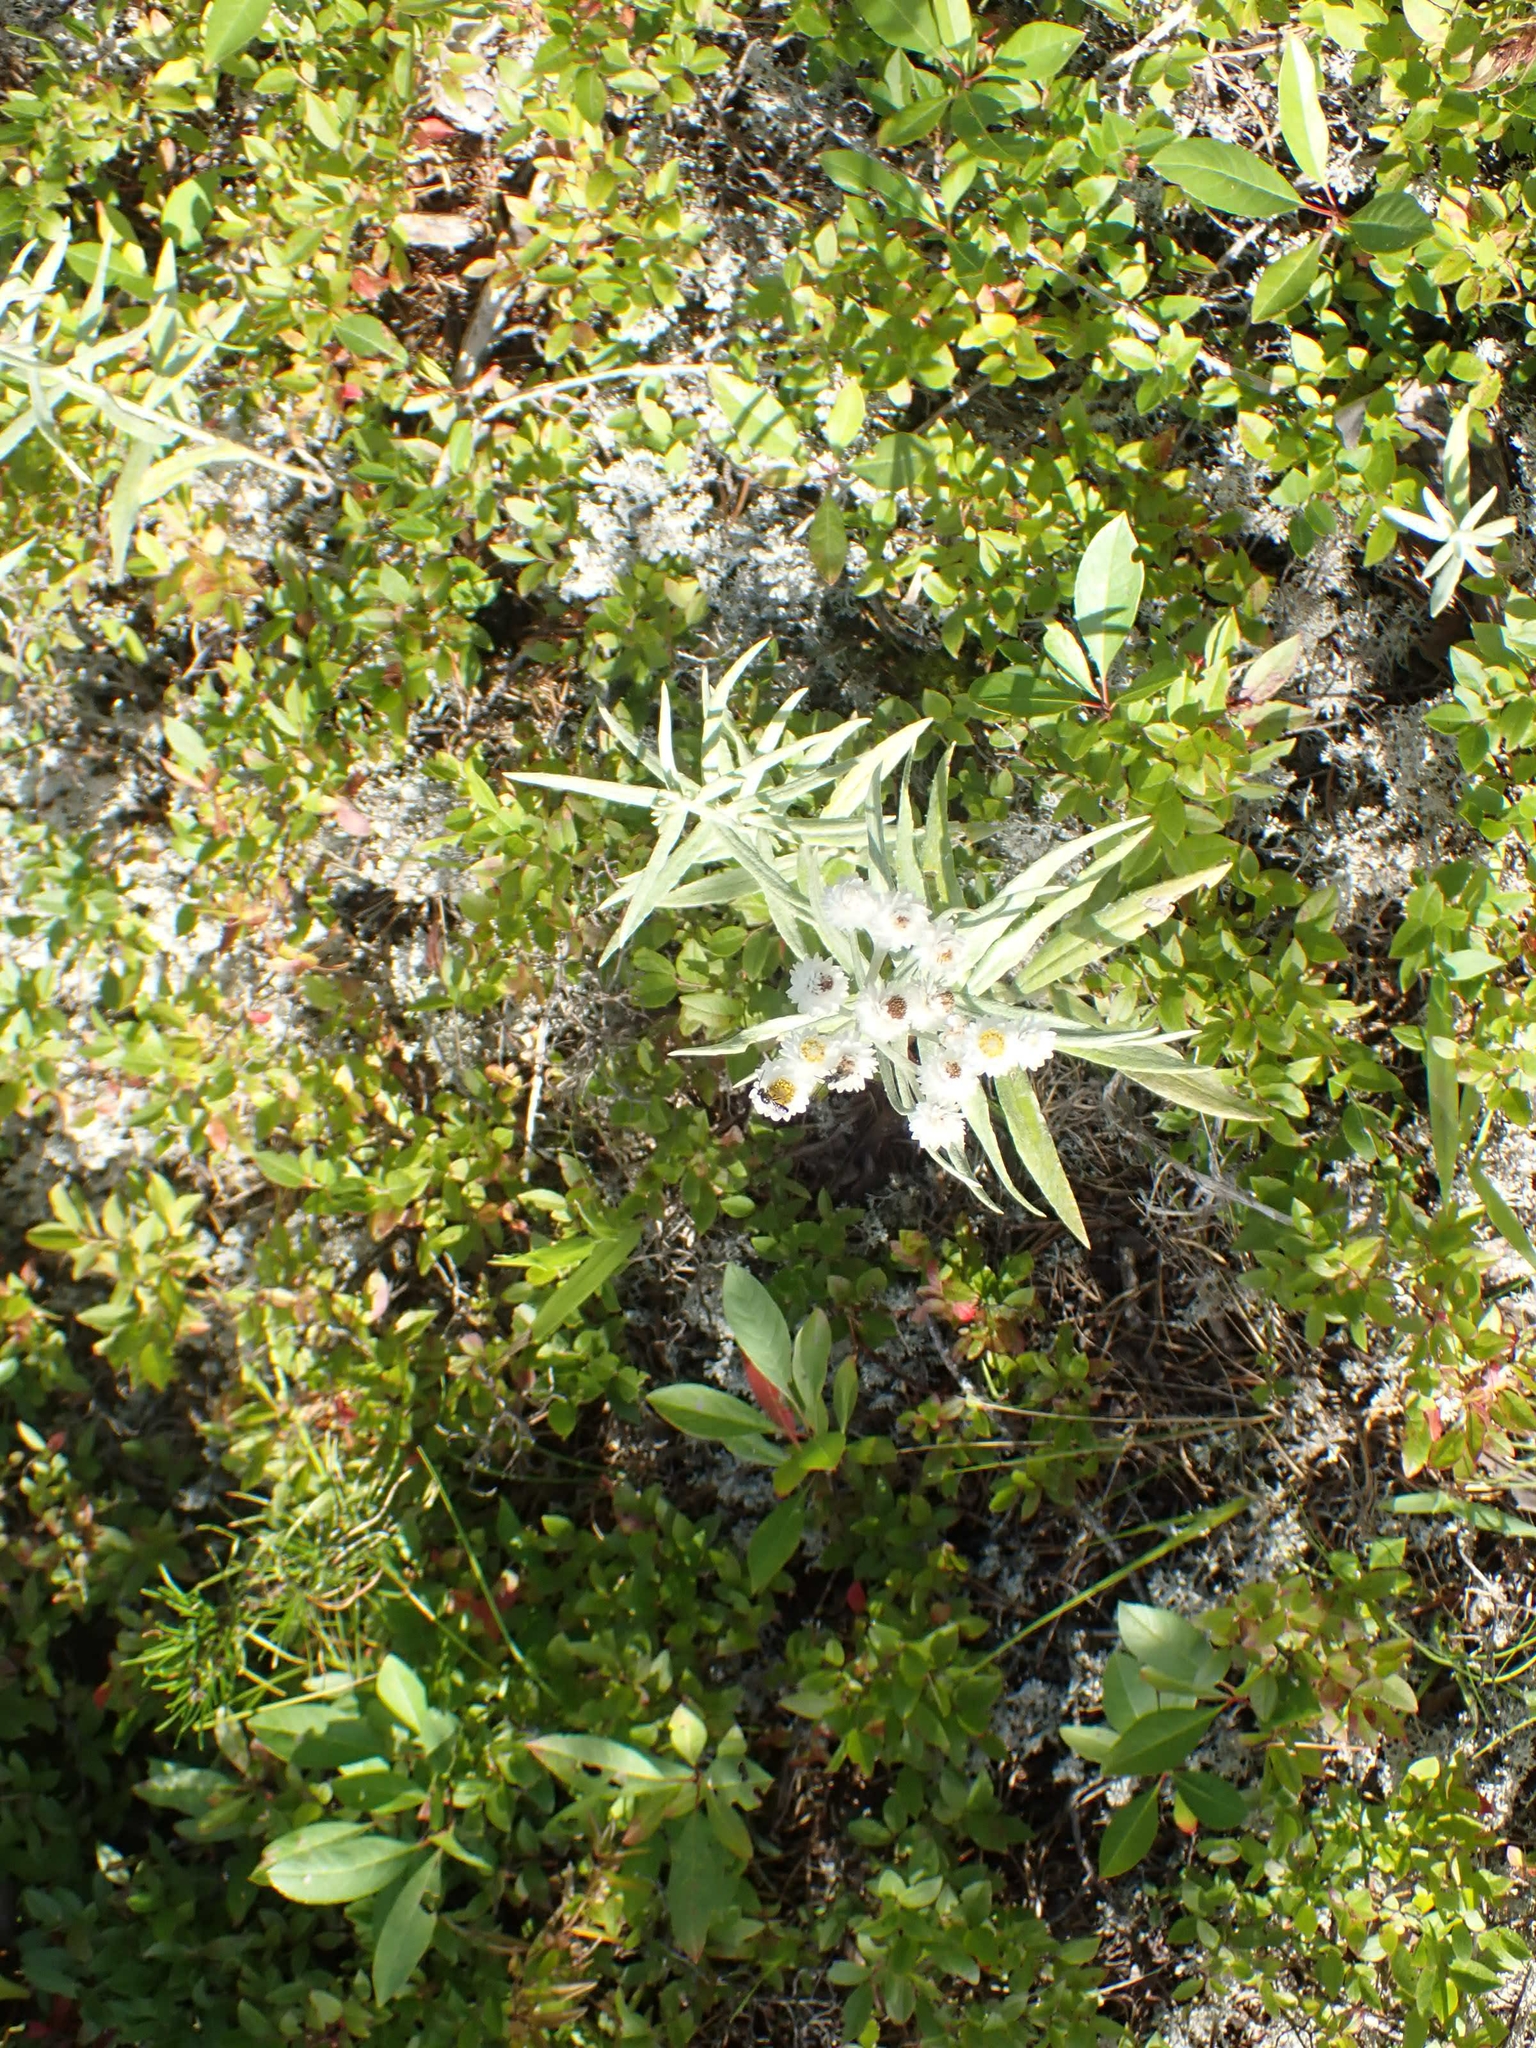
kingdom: Plantae
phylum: Tracheophyta
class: Magnoliopsida
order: Asterales
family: Asteraceae
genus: Anaphalis
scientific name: Anaphalis margaritacea
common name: Pearly everlasting
